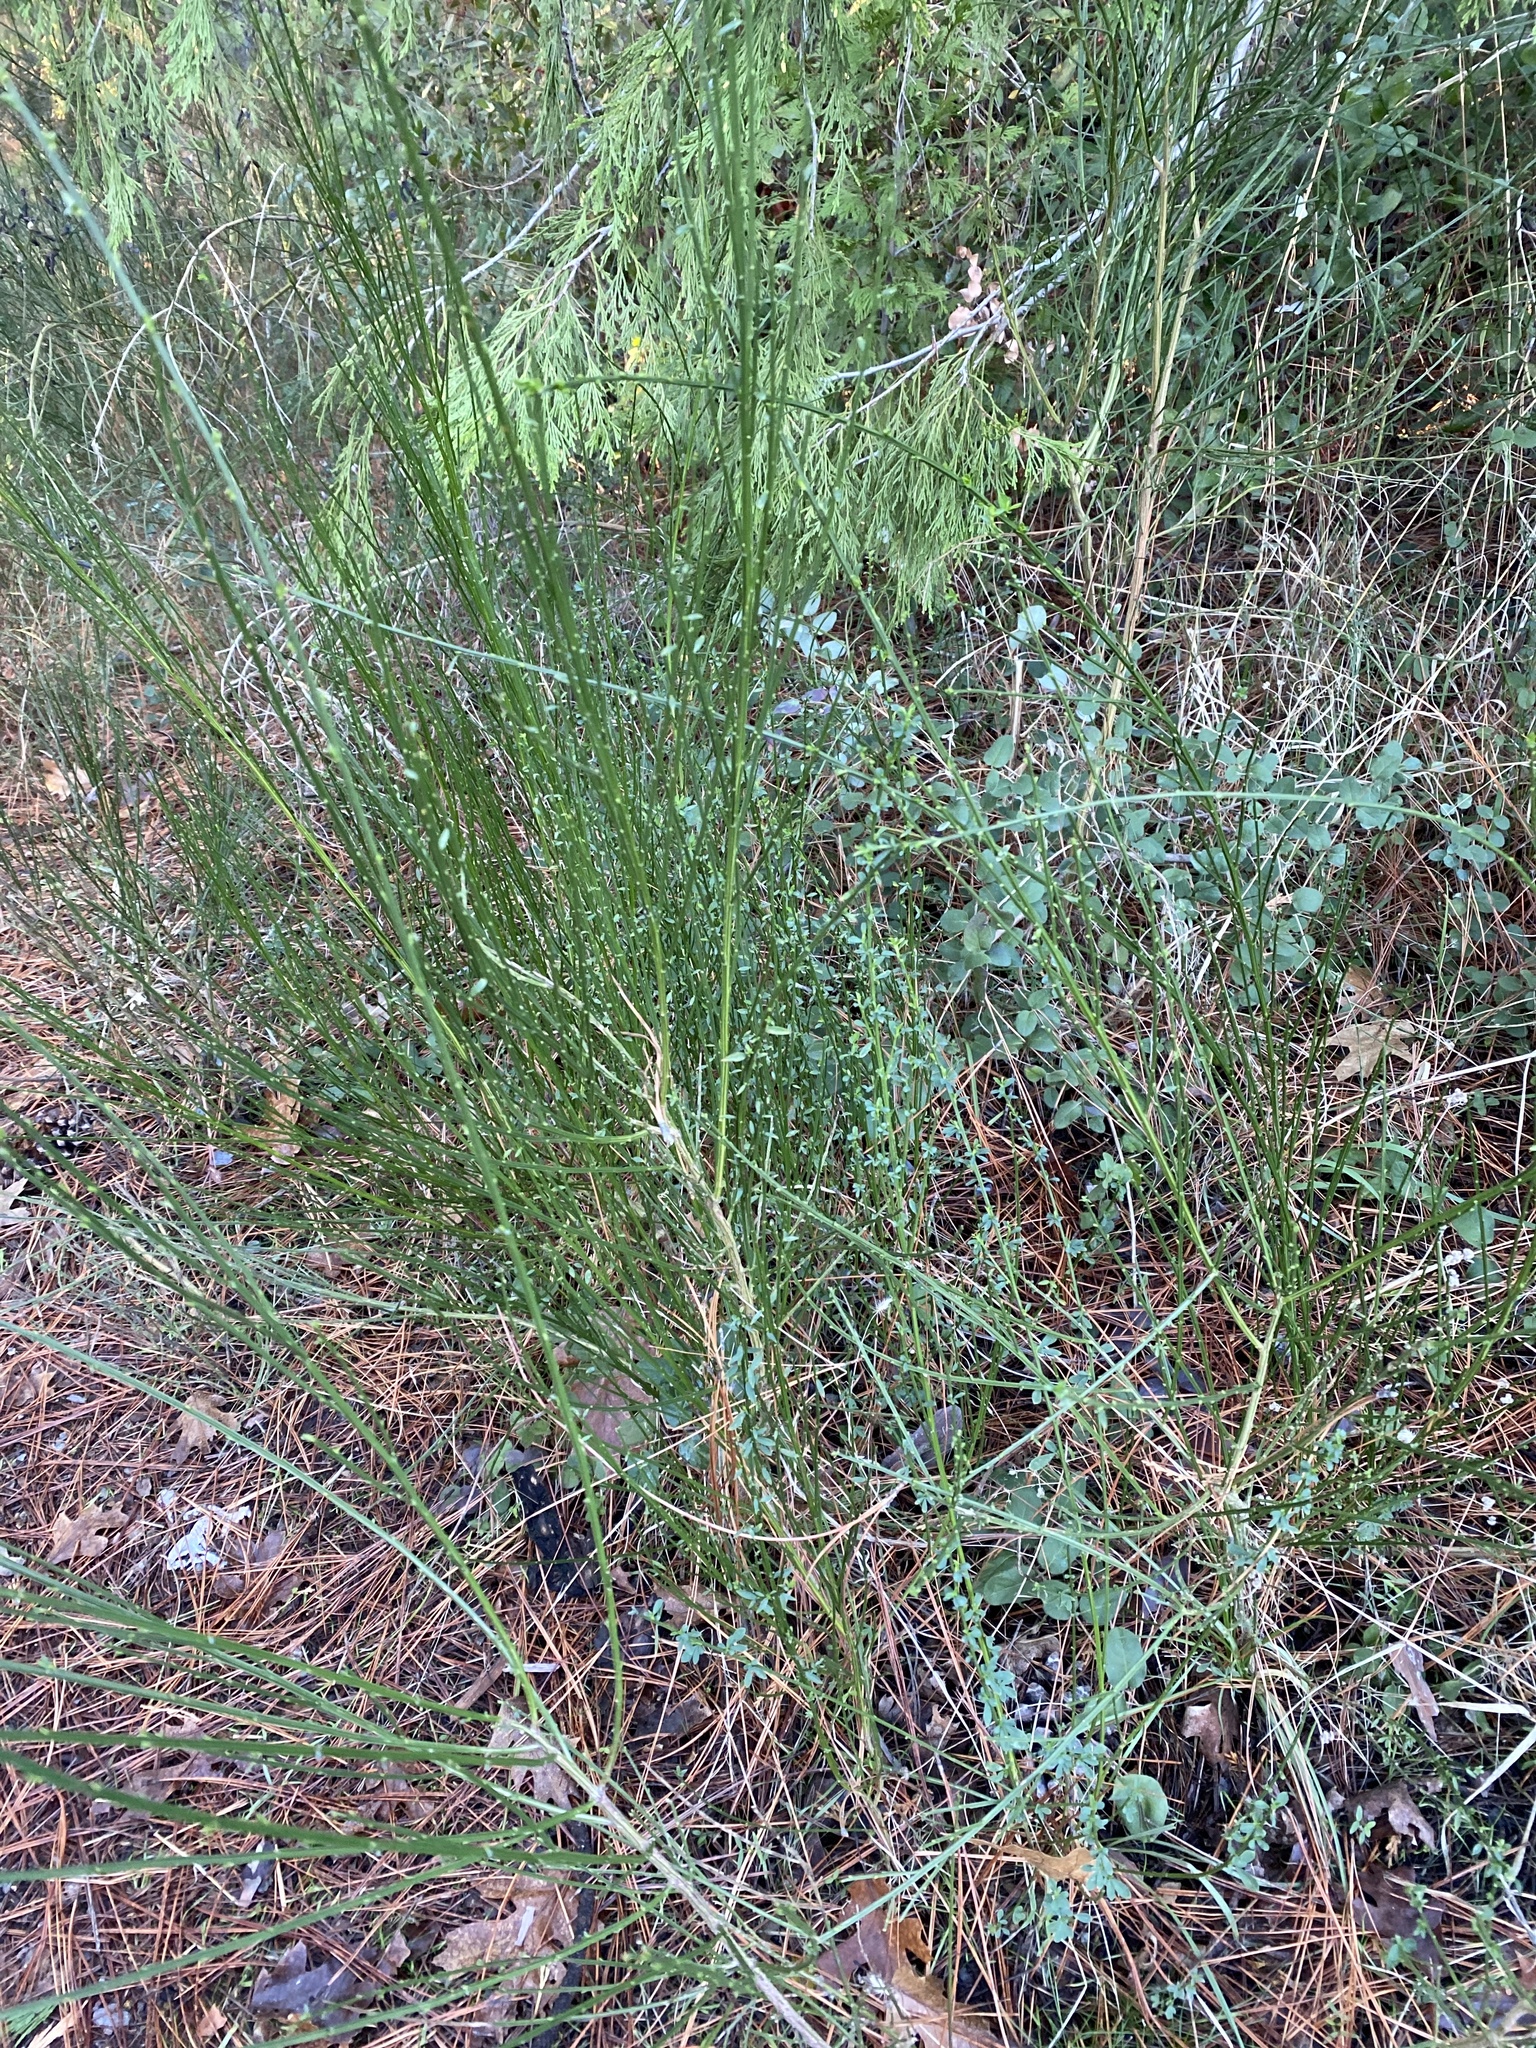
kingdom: Plantae
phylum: Tracheophyta
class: Magnoliopsida
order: Fabales
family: Fabaceae
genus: Cytisus
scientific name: Cytisus scoparius
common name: Scotch broom
